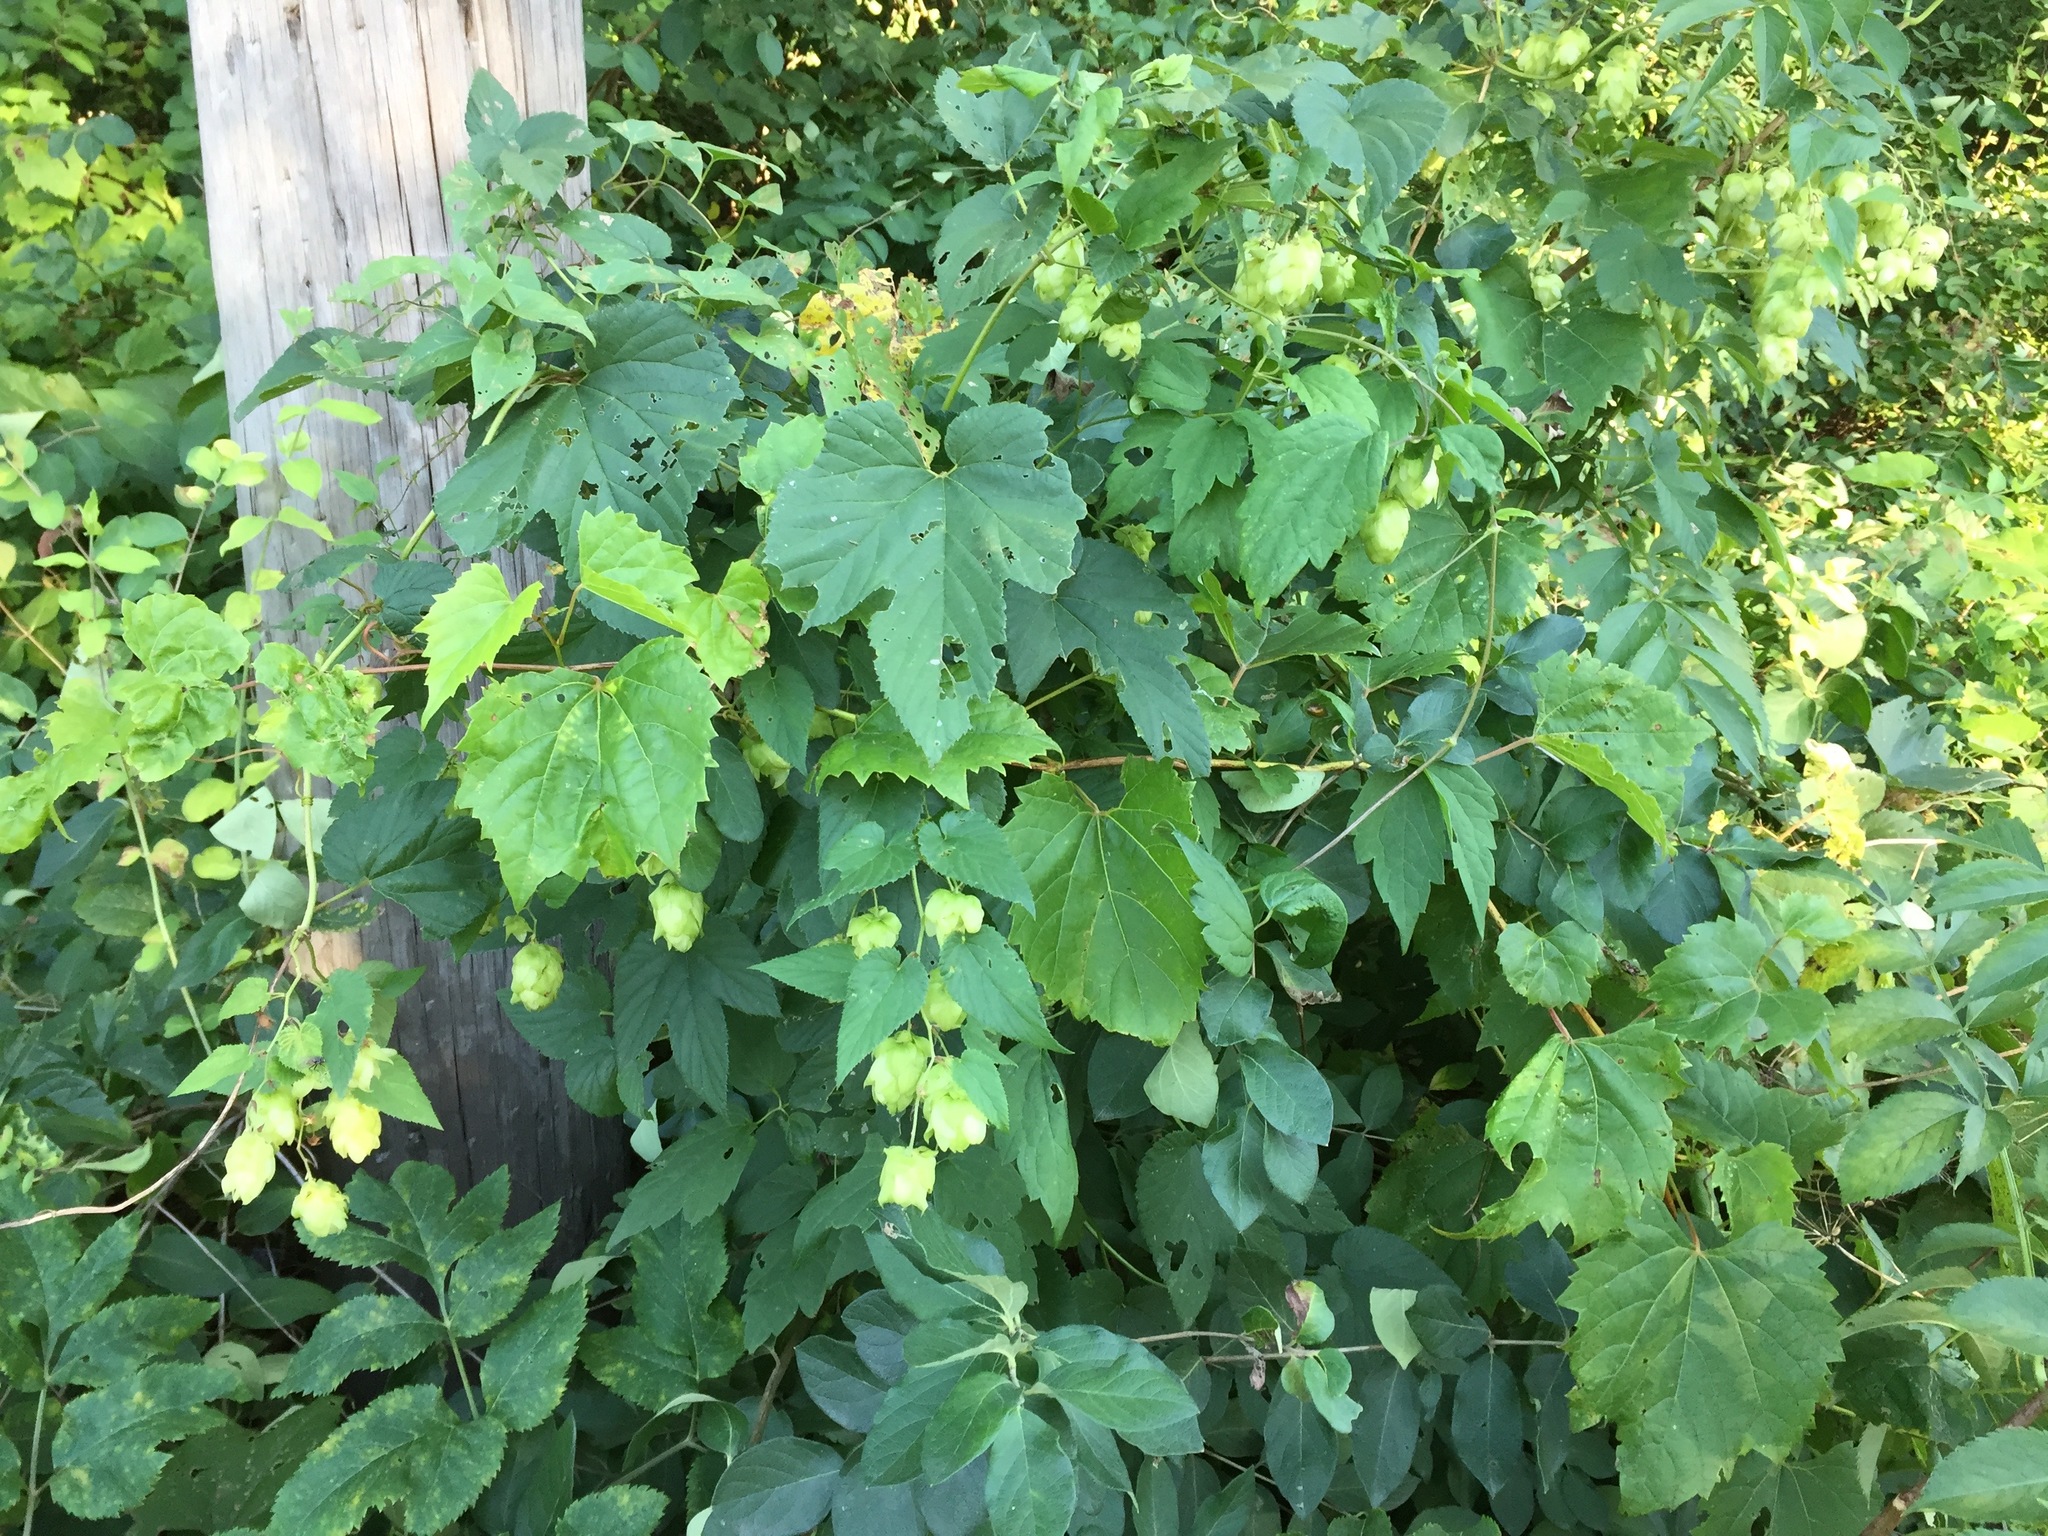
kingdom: Plantae
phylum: Tracheophyta
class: Magnoliopsida
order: Rosales
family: Cannabaceae
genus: Humulus
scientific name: Humulus lupulus
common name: Hop
